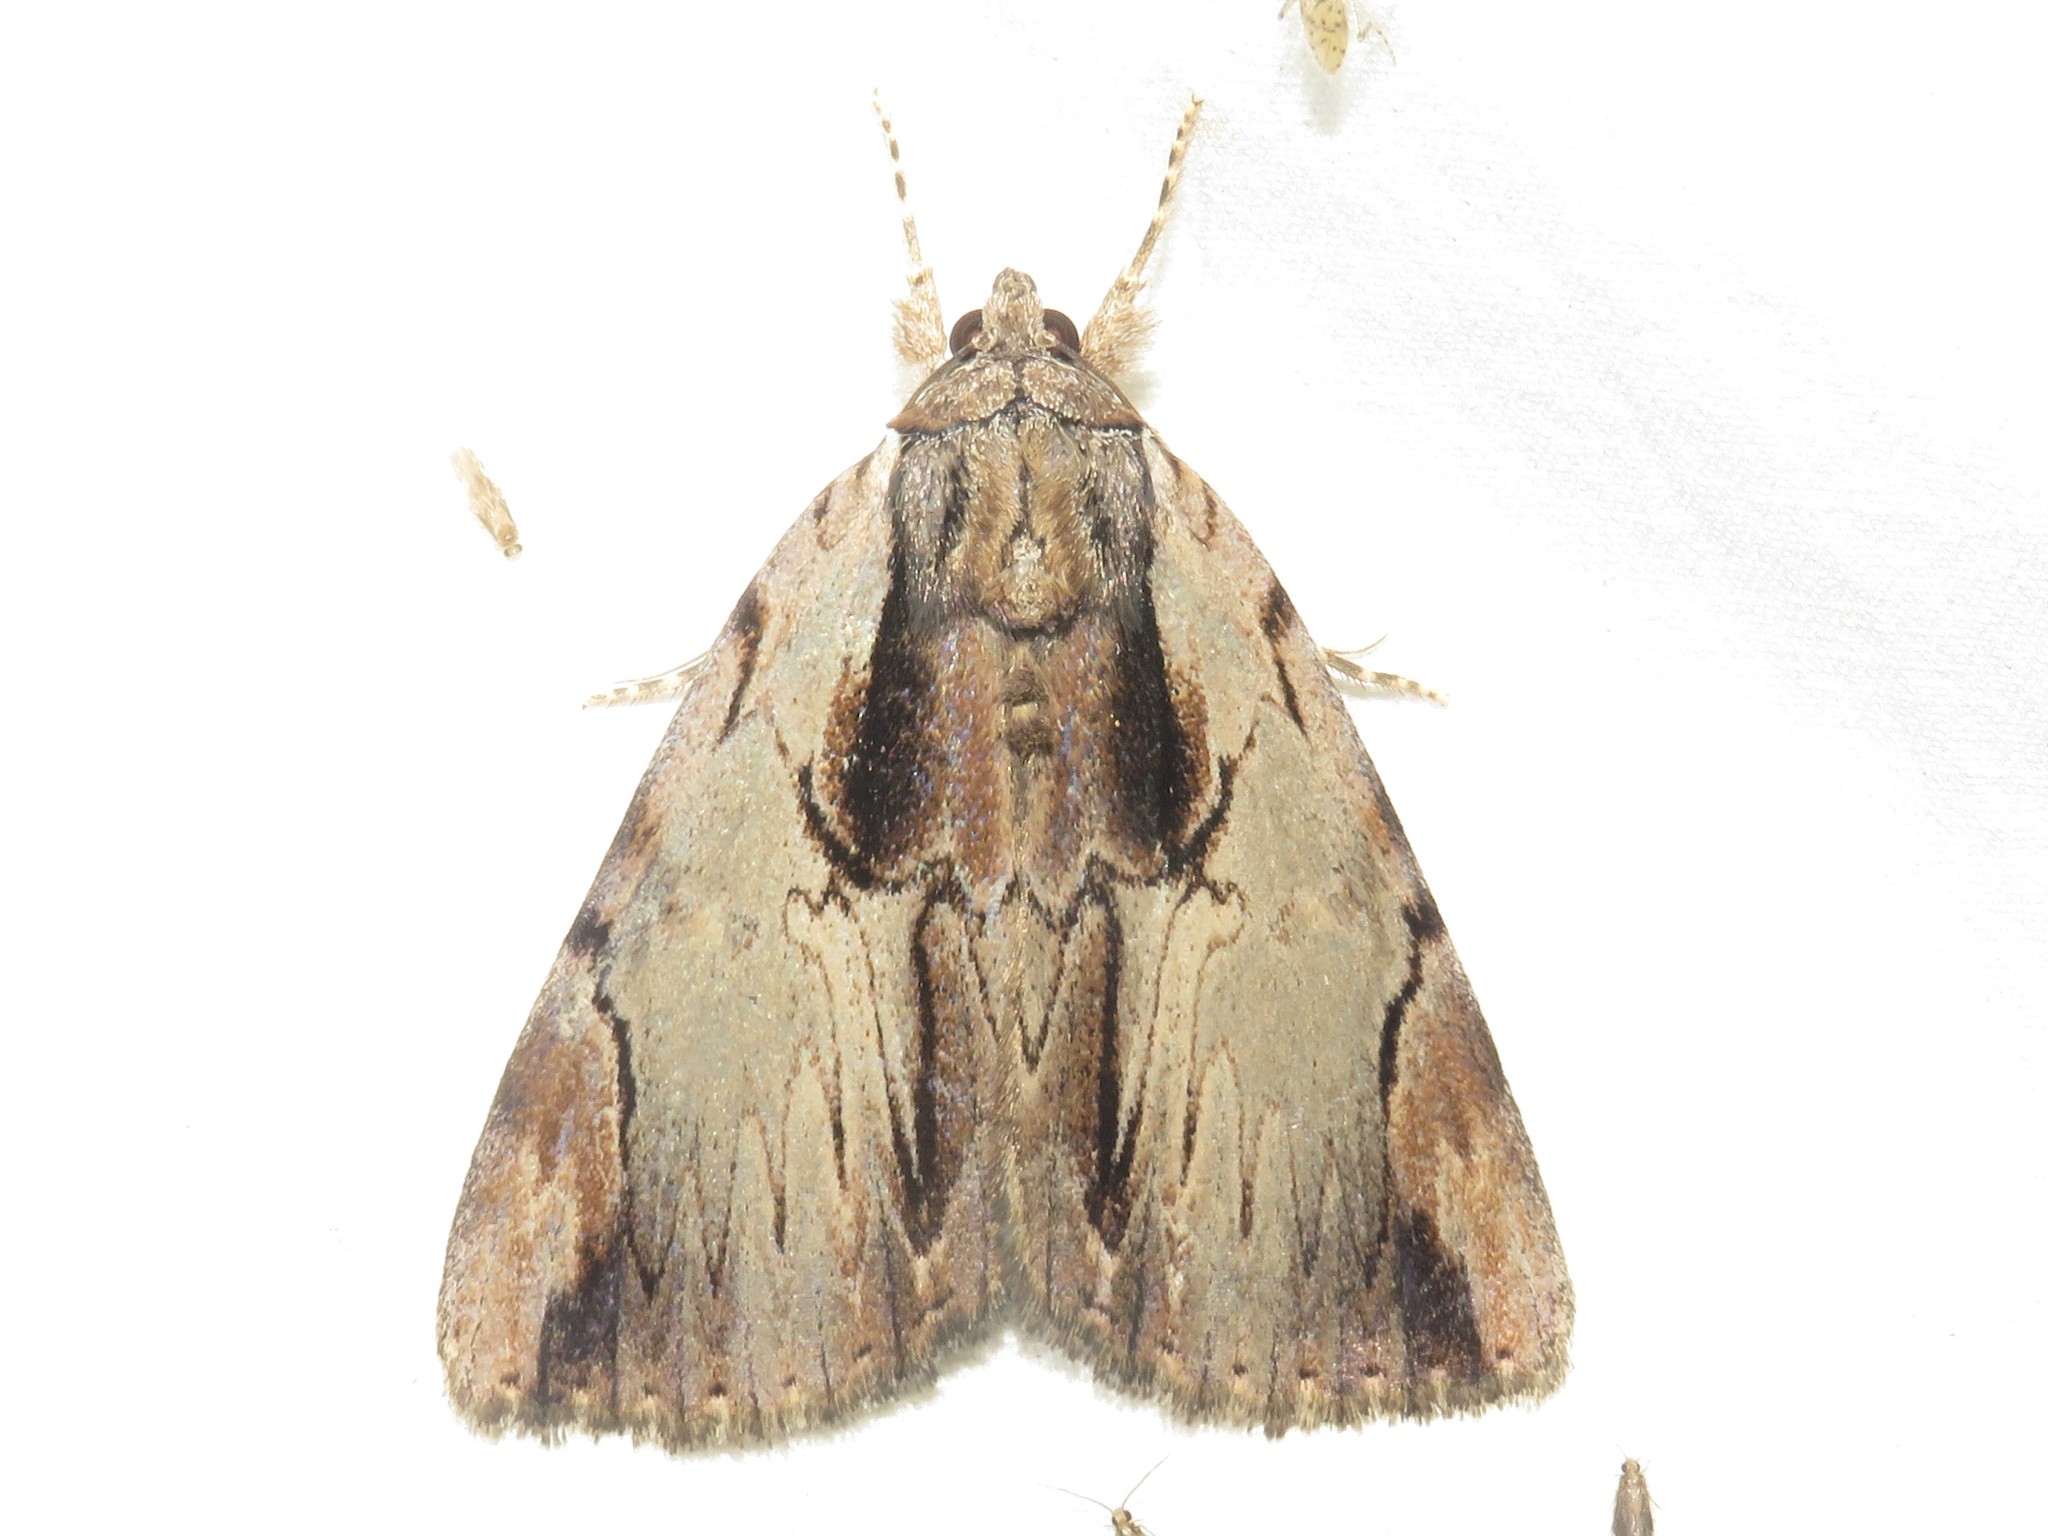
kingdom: Animalia
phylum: Arthropoda
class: Insecta
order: Lepidoptera
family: Erebidae
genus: Catocala
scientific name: Catocala ultronia
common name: Ultronia underwing
